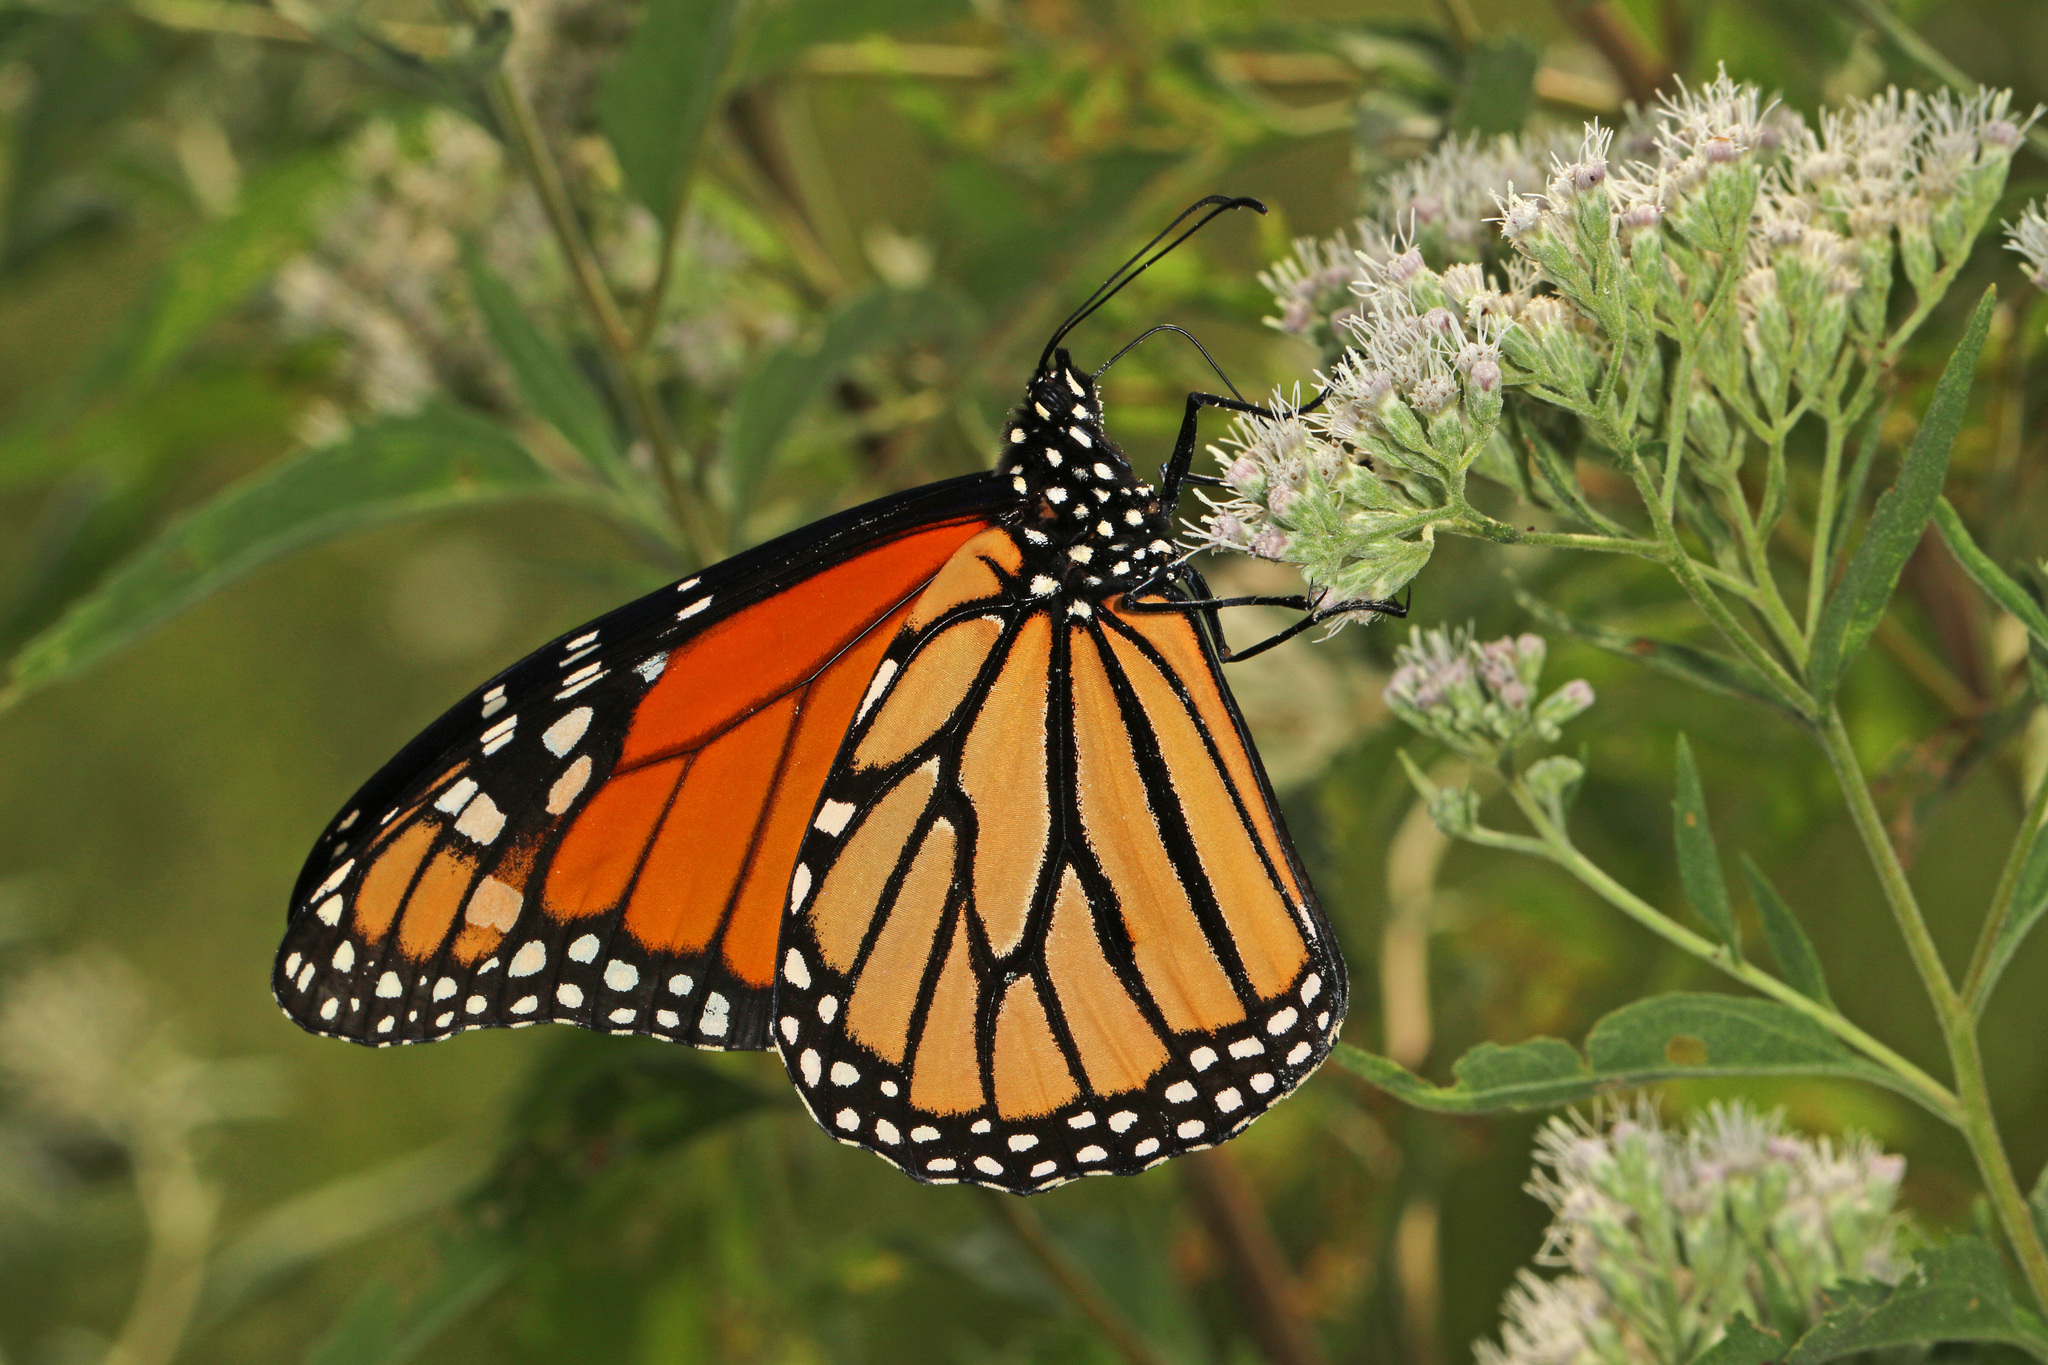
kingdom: Animalia
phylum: Arthropoda
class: Insecta
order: Lepidoptera
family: Nymphalidae
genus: Danaus
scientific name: Danaus plexippus
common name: Monarch
